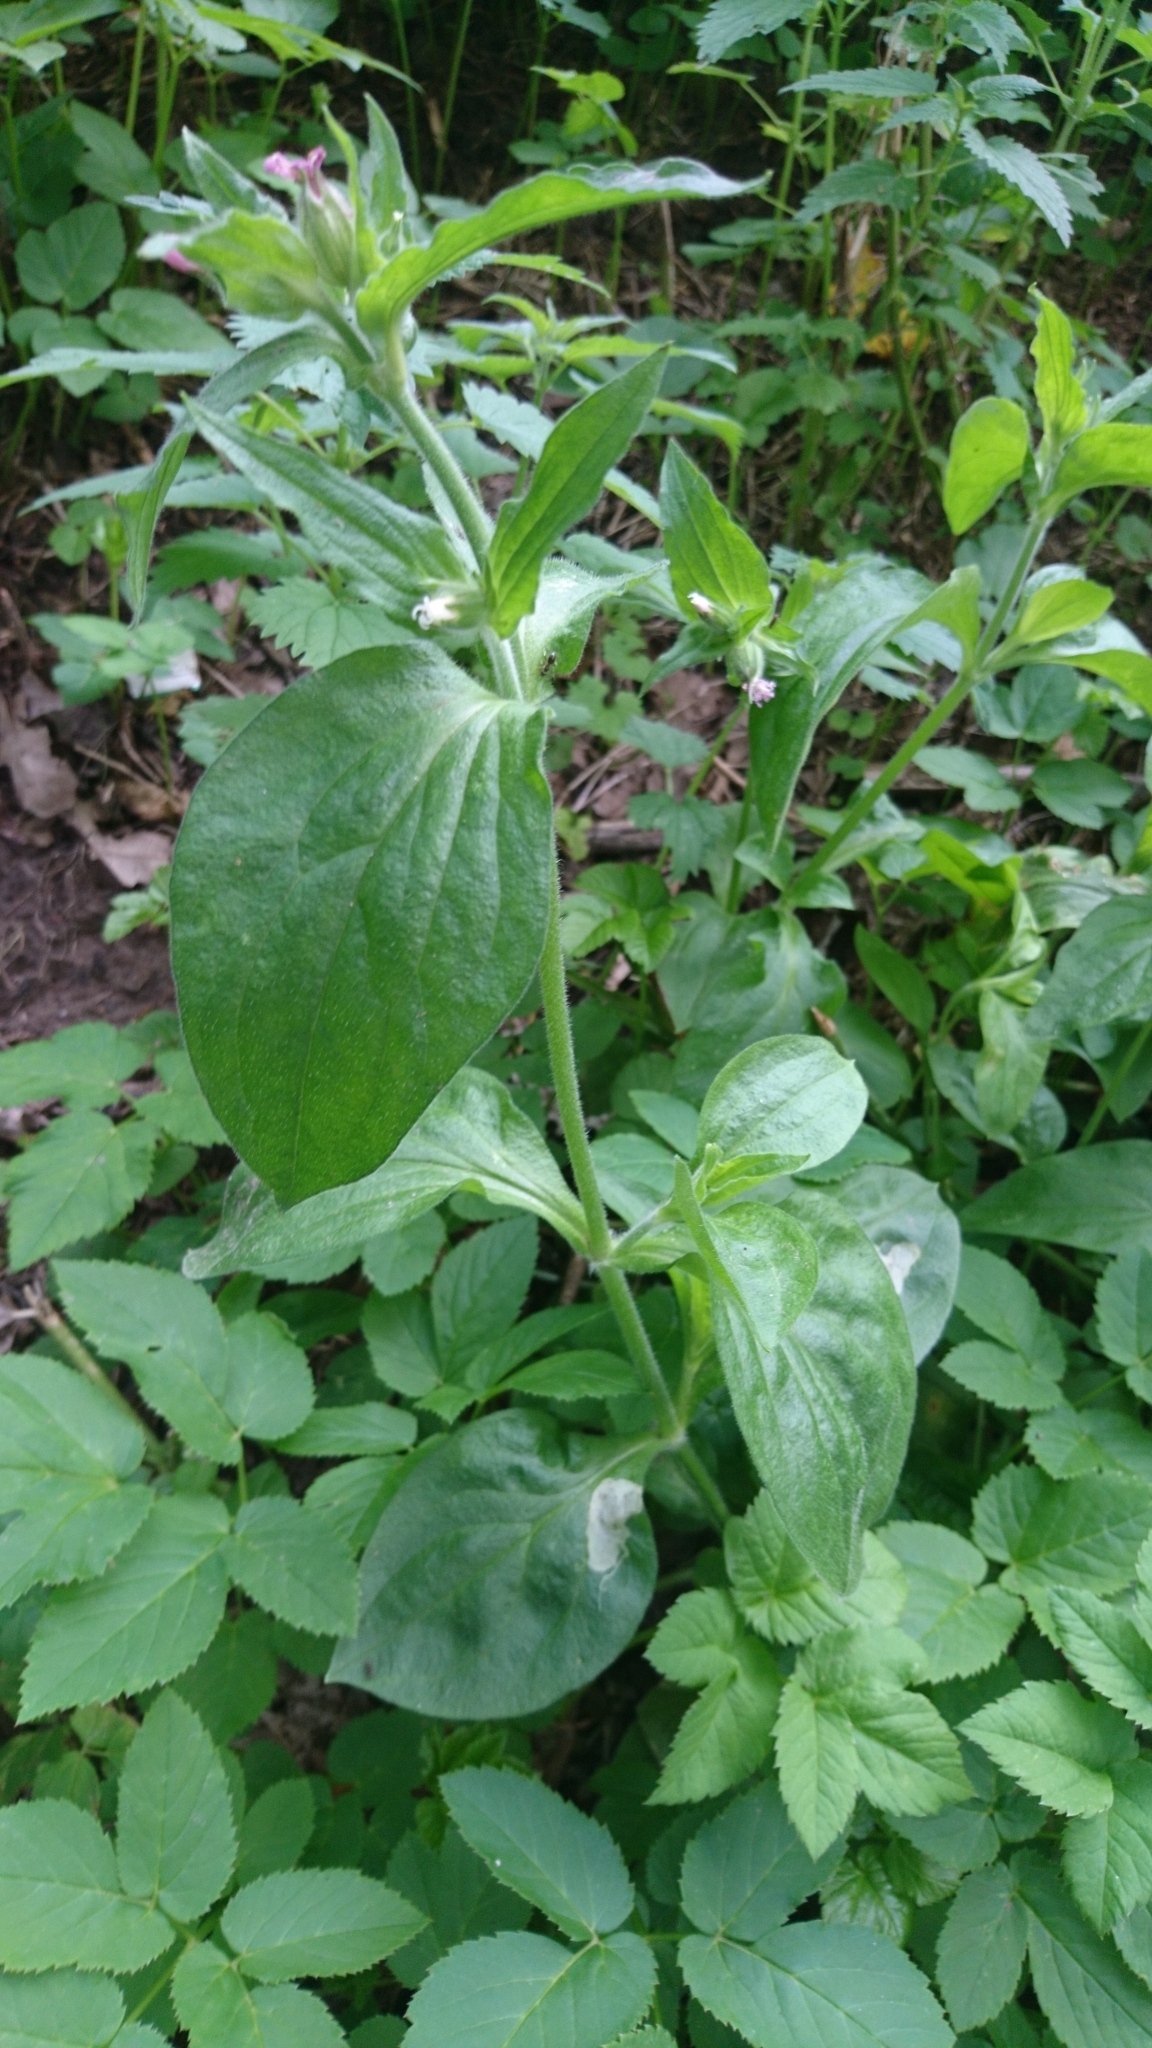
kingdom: Plantae
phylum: Tracheophyta
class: Magnoliopsida
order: Caryophyllales
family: Caryophyllaceae
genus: Silene
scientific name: Silene dioica
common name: Red campion
